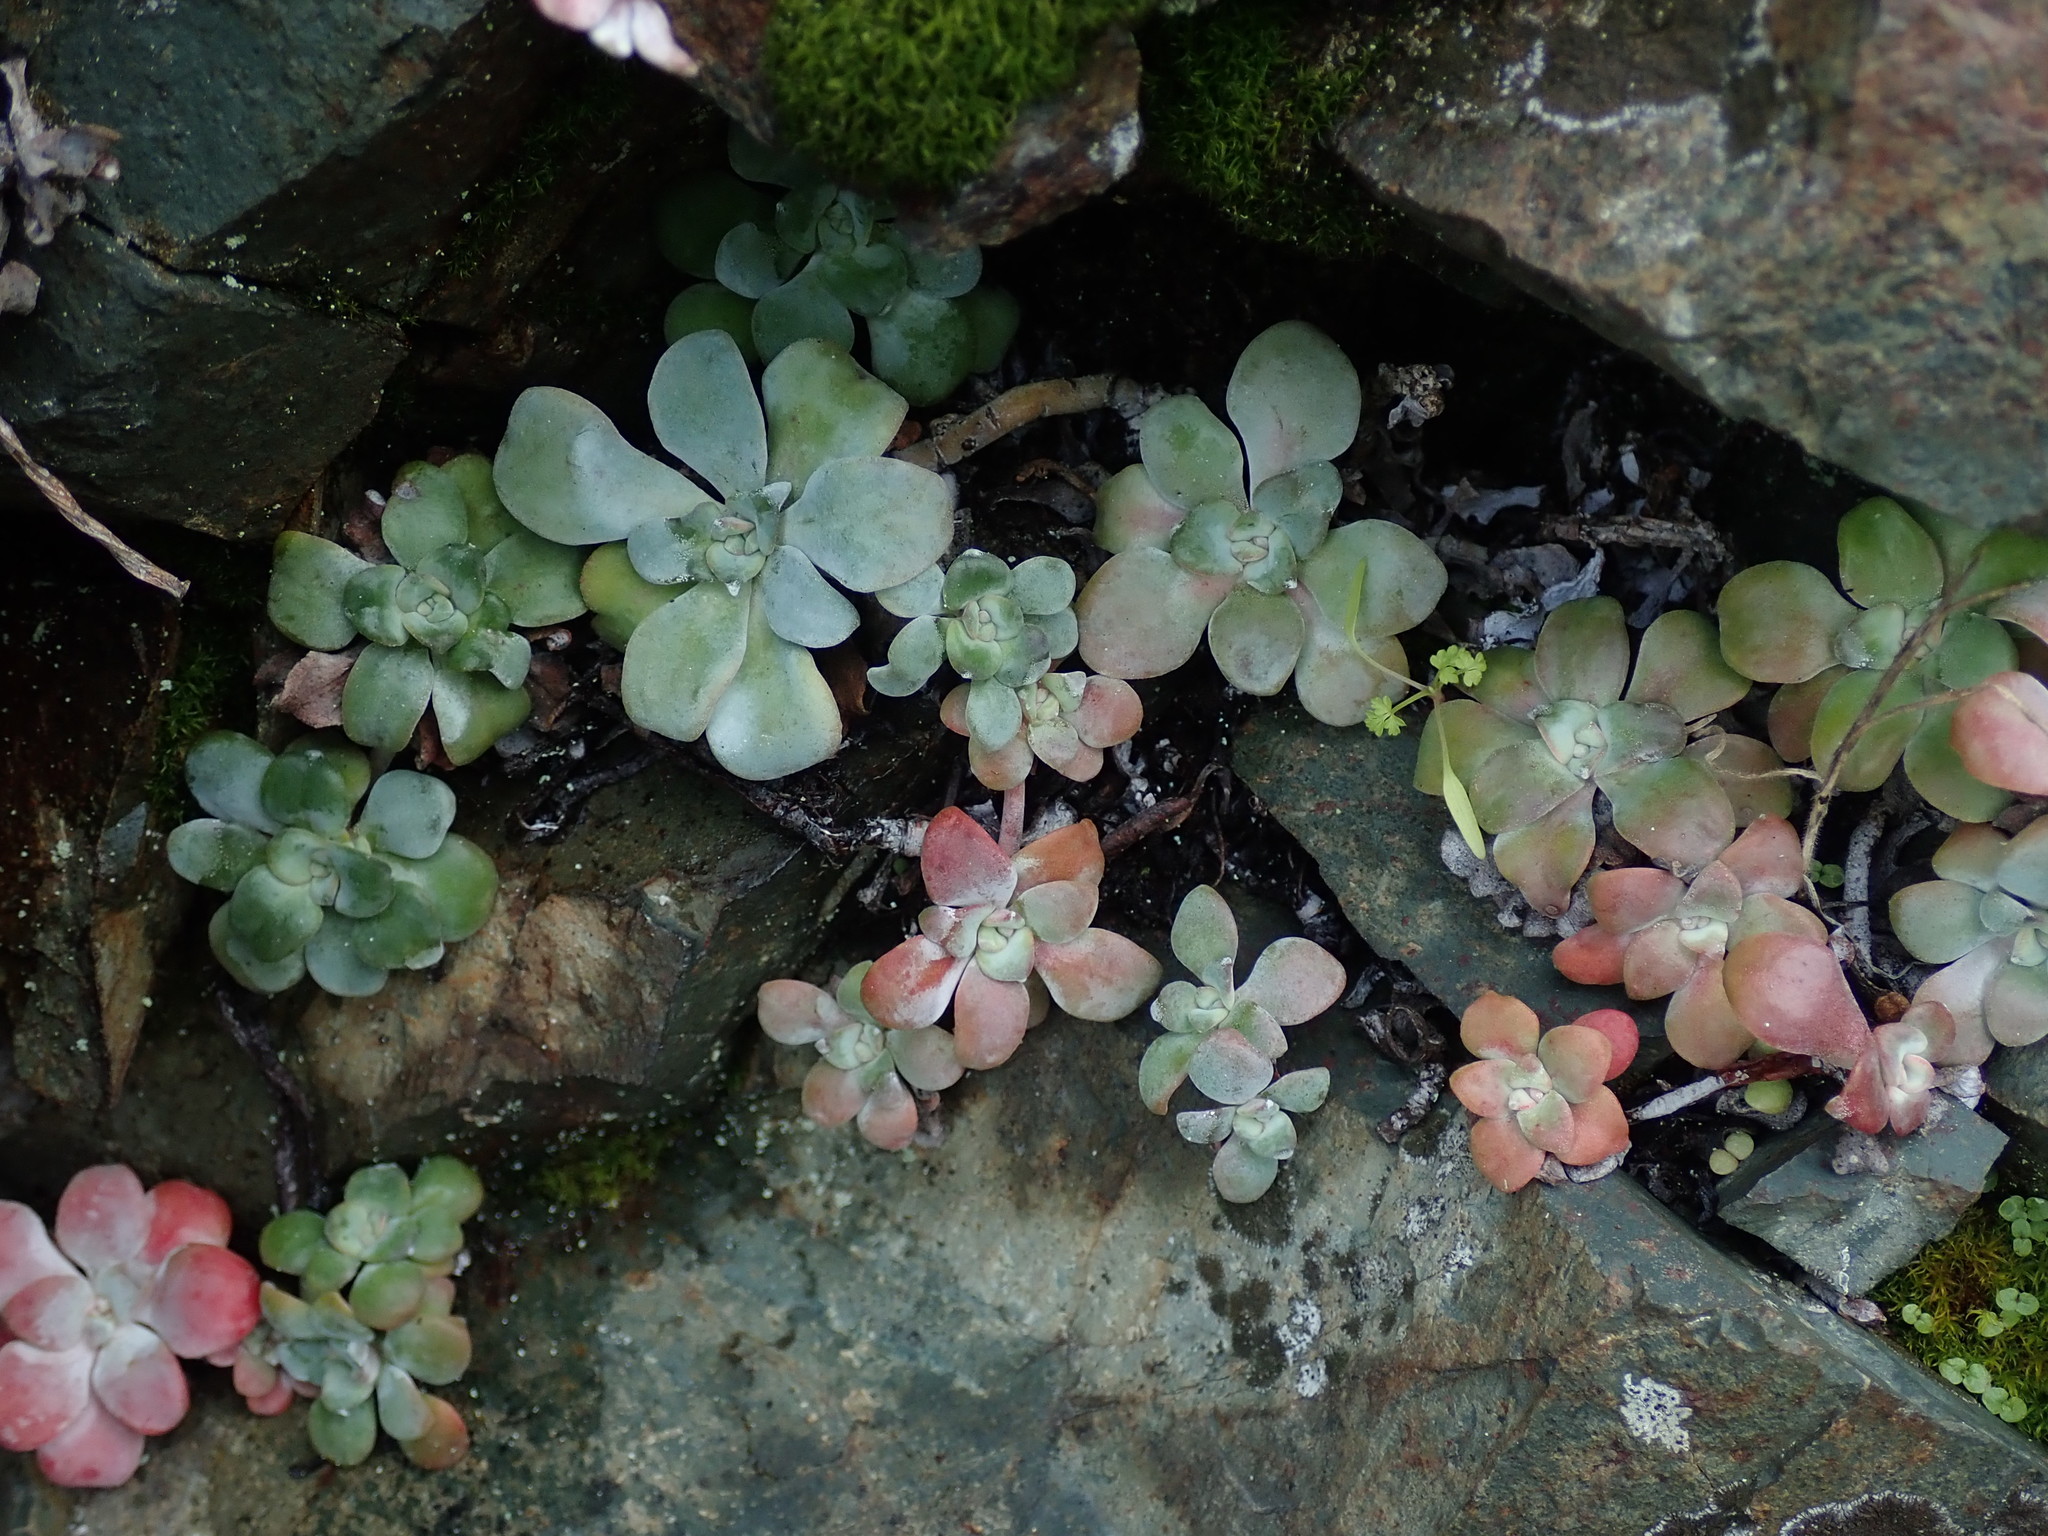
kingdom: Plantae
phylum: Tracheophyta
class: Magnoliopsida
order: Saxifragales
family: Crassulaceae
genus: Sedum
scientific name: Sedum spathulifolium
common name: Colorado stonecrop
